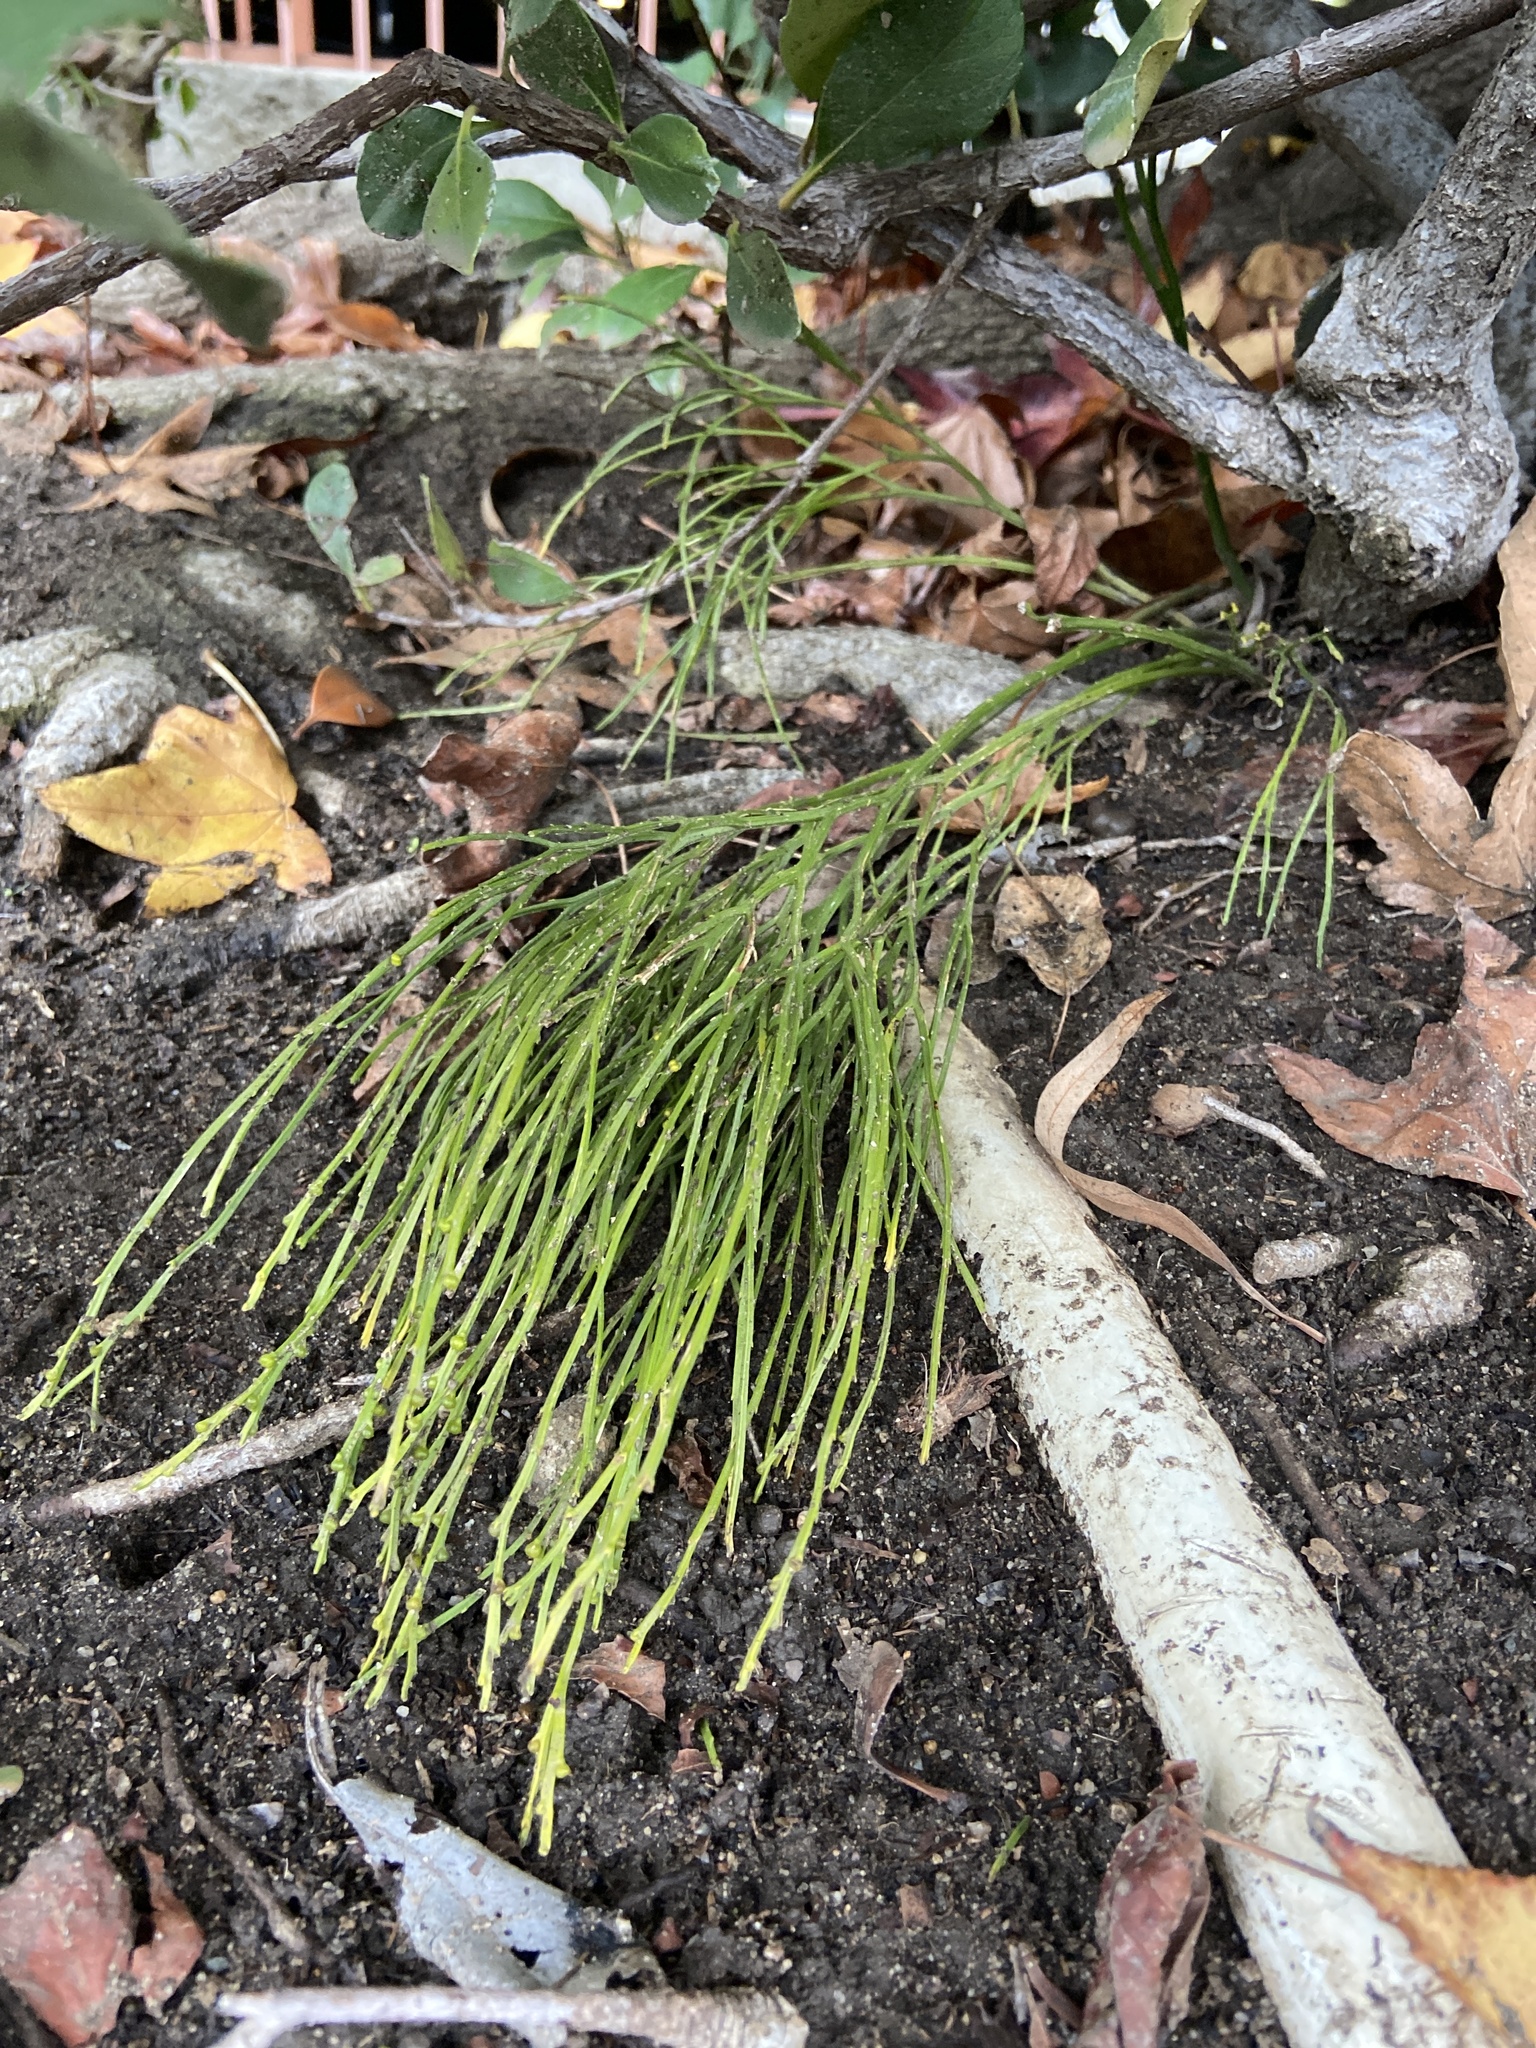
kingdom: Plantae
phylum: Tracheophyta
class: Polypodiopsida
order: Psilotales
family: Psilotaceae
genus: Psilotum
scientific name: Psilotum nudum
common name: Skeleton fork fern
